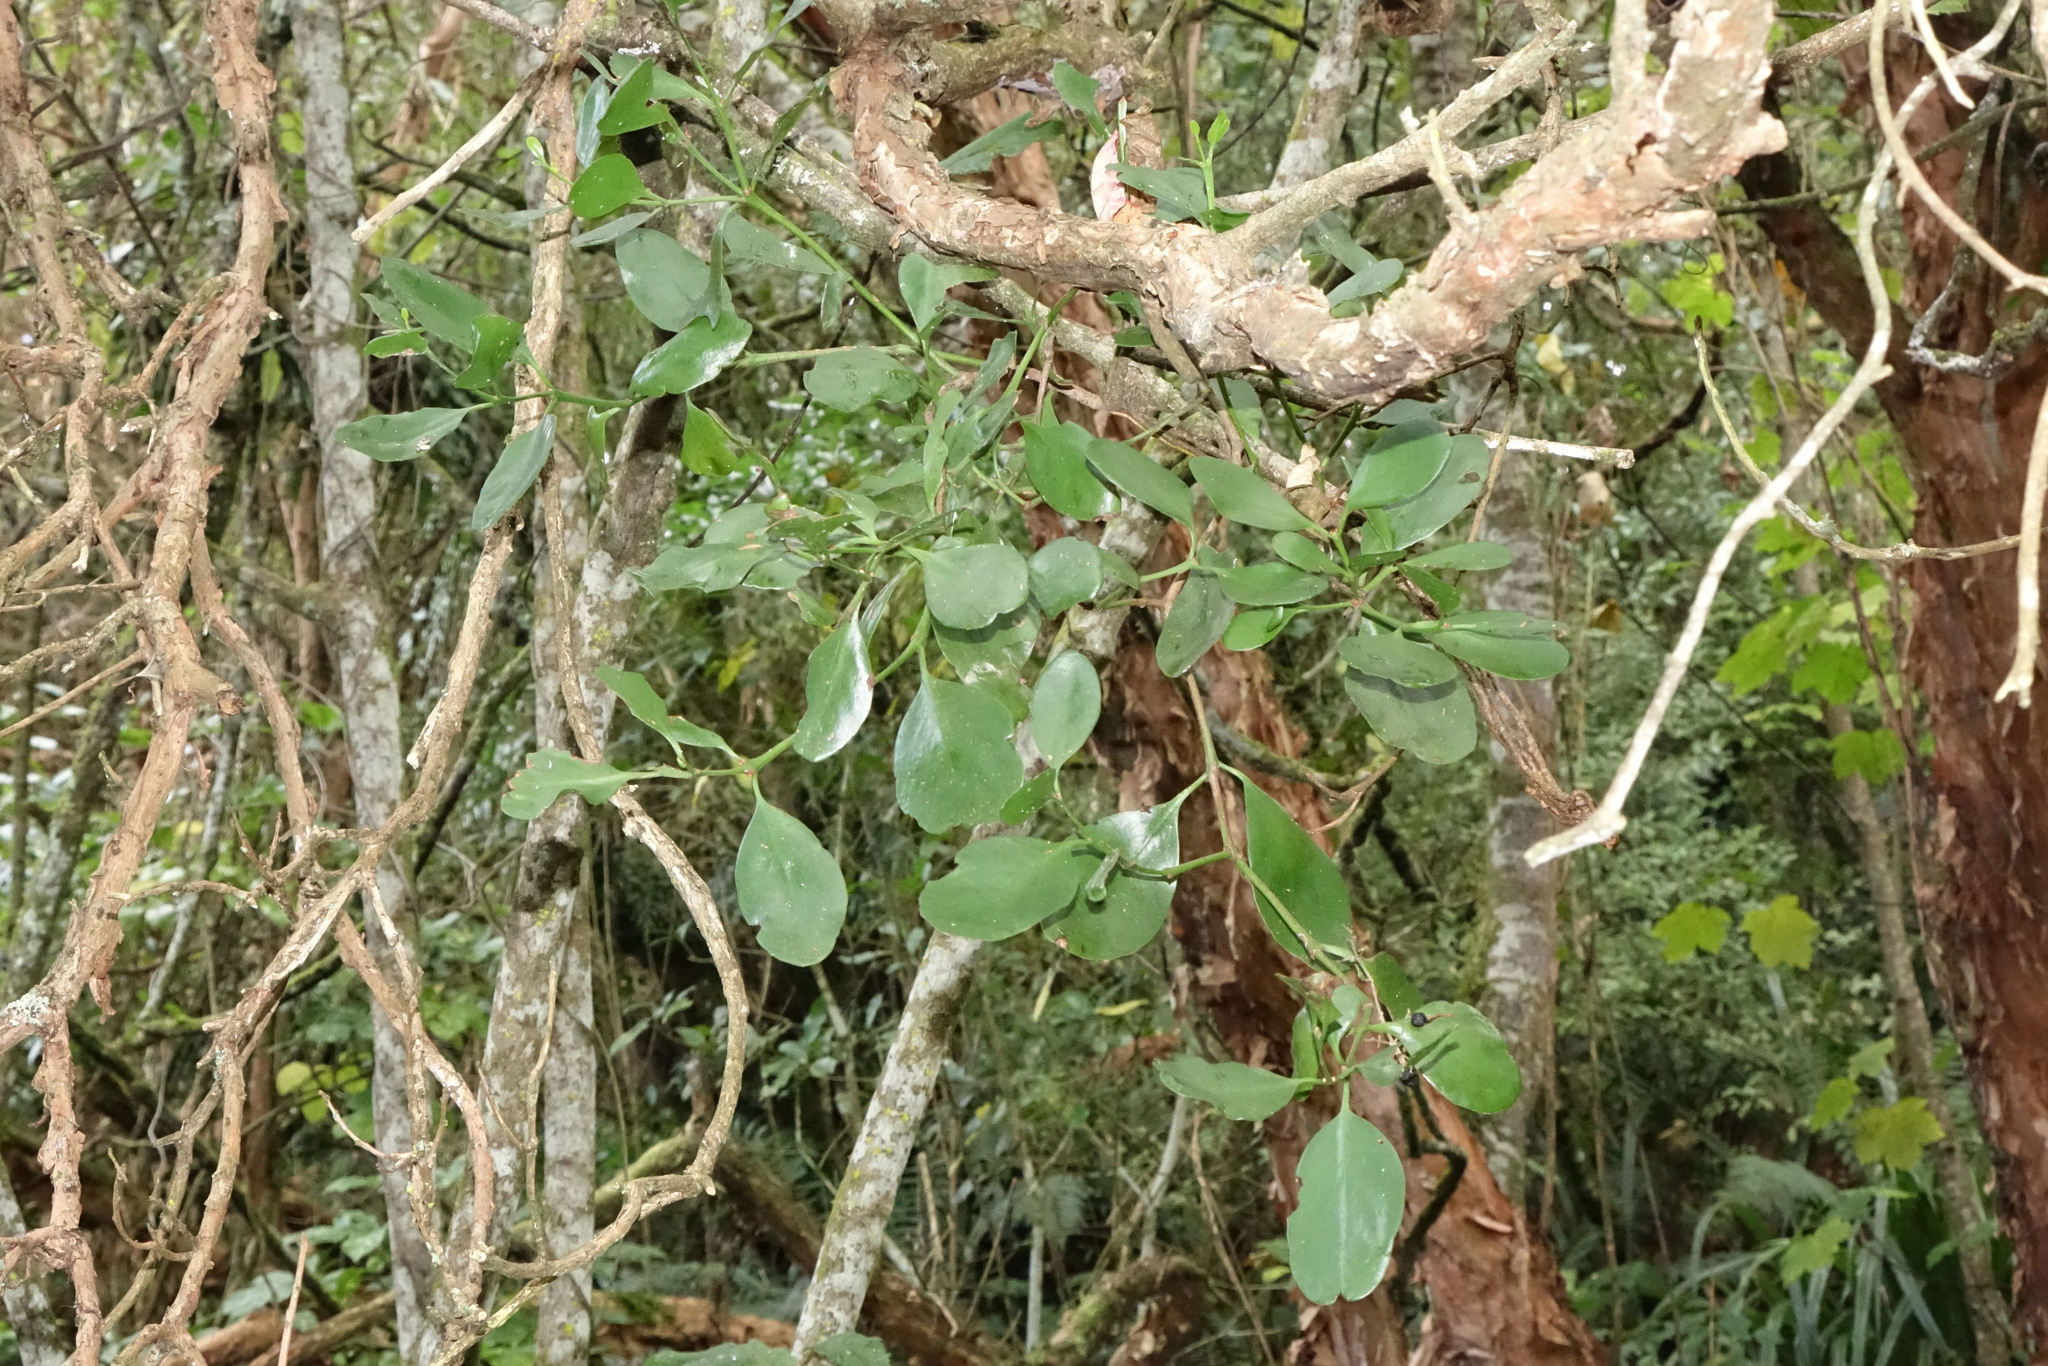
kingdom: Plantae
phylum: Tracheophyta
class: Magnoliopsida
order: Santalales
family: Loranthaceae
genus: Ileostylus
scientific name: Ileostylus micranthus
